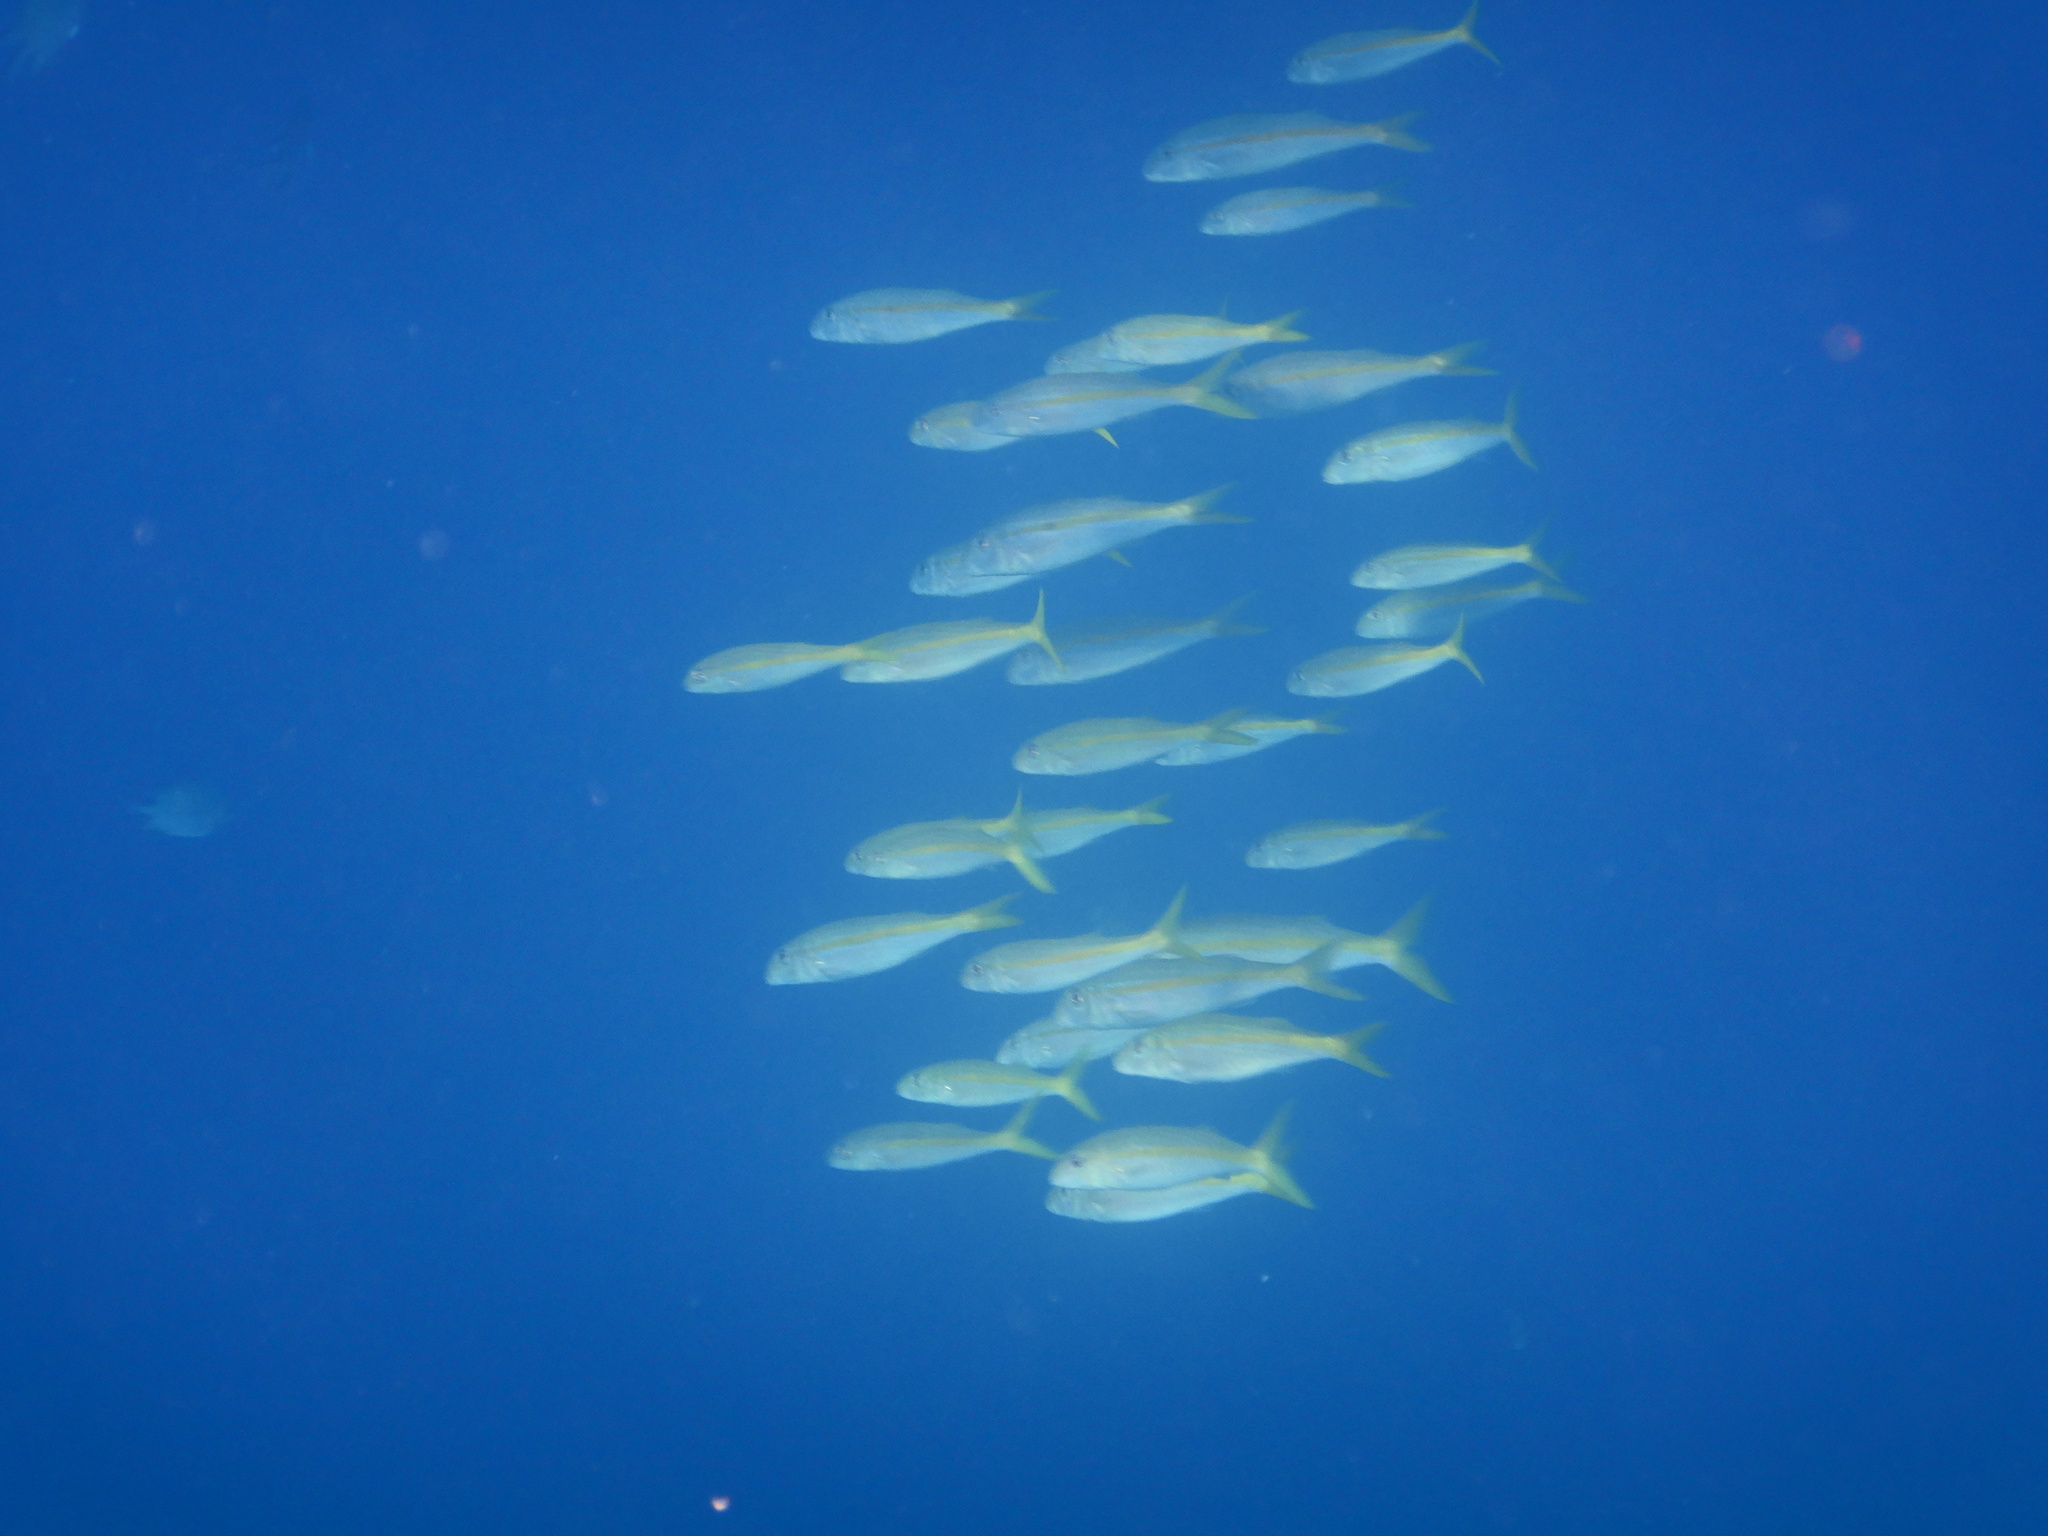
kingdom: Animalia
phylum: Chordata
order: Perciformes
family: Mullidae
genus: Mulloidichthys
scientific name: Mulloidichthys vanicolensis
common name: Yellowfin goatfish
